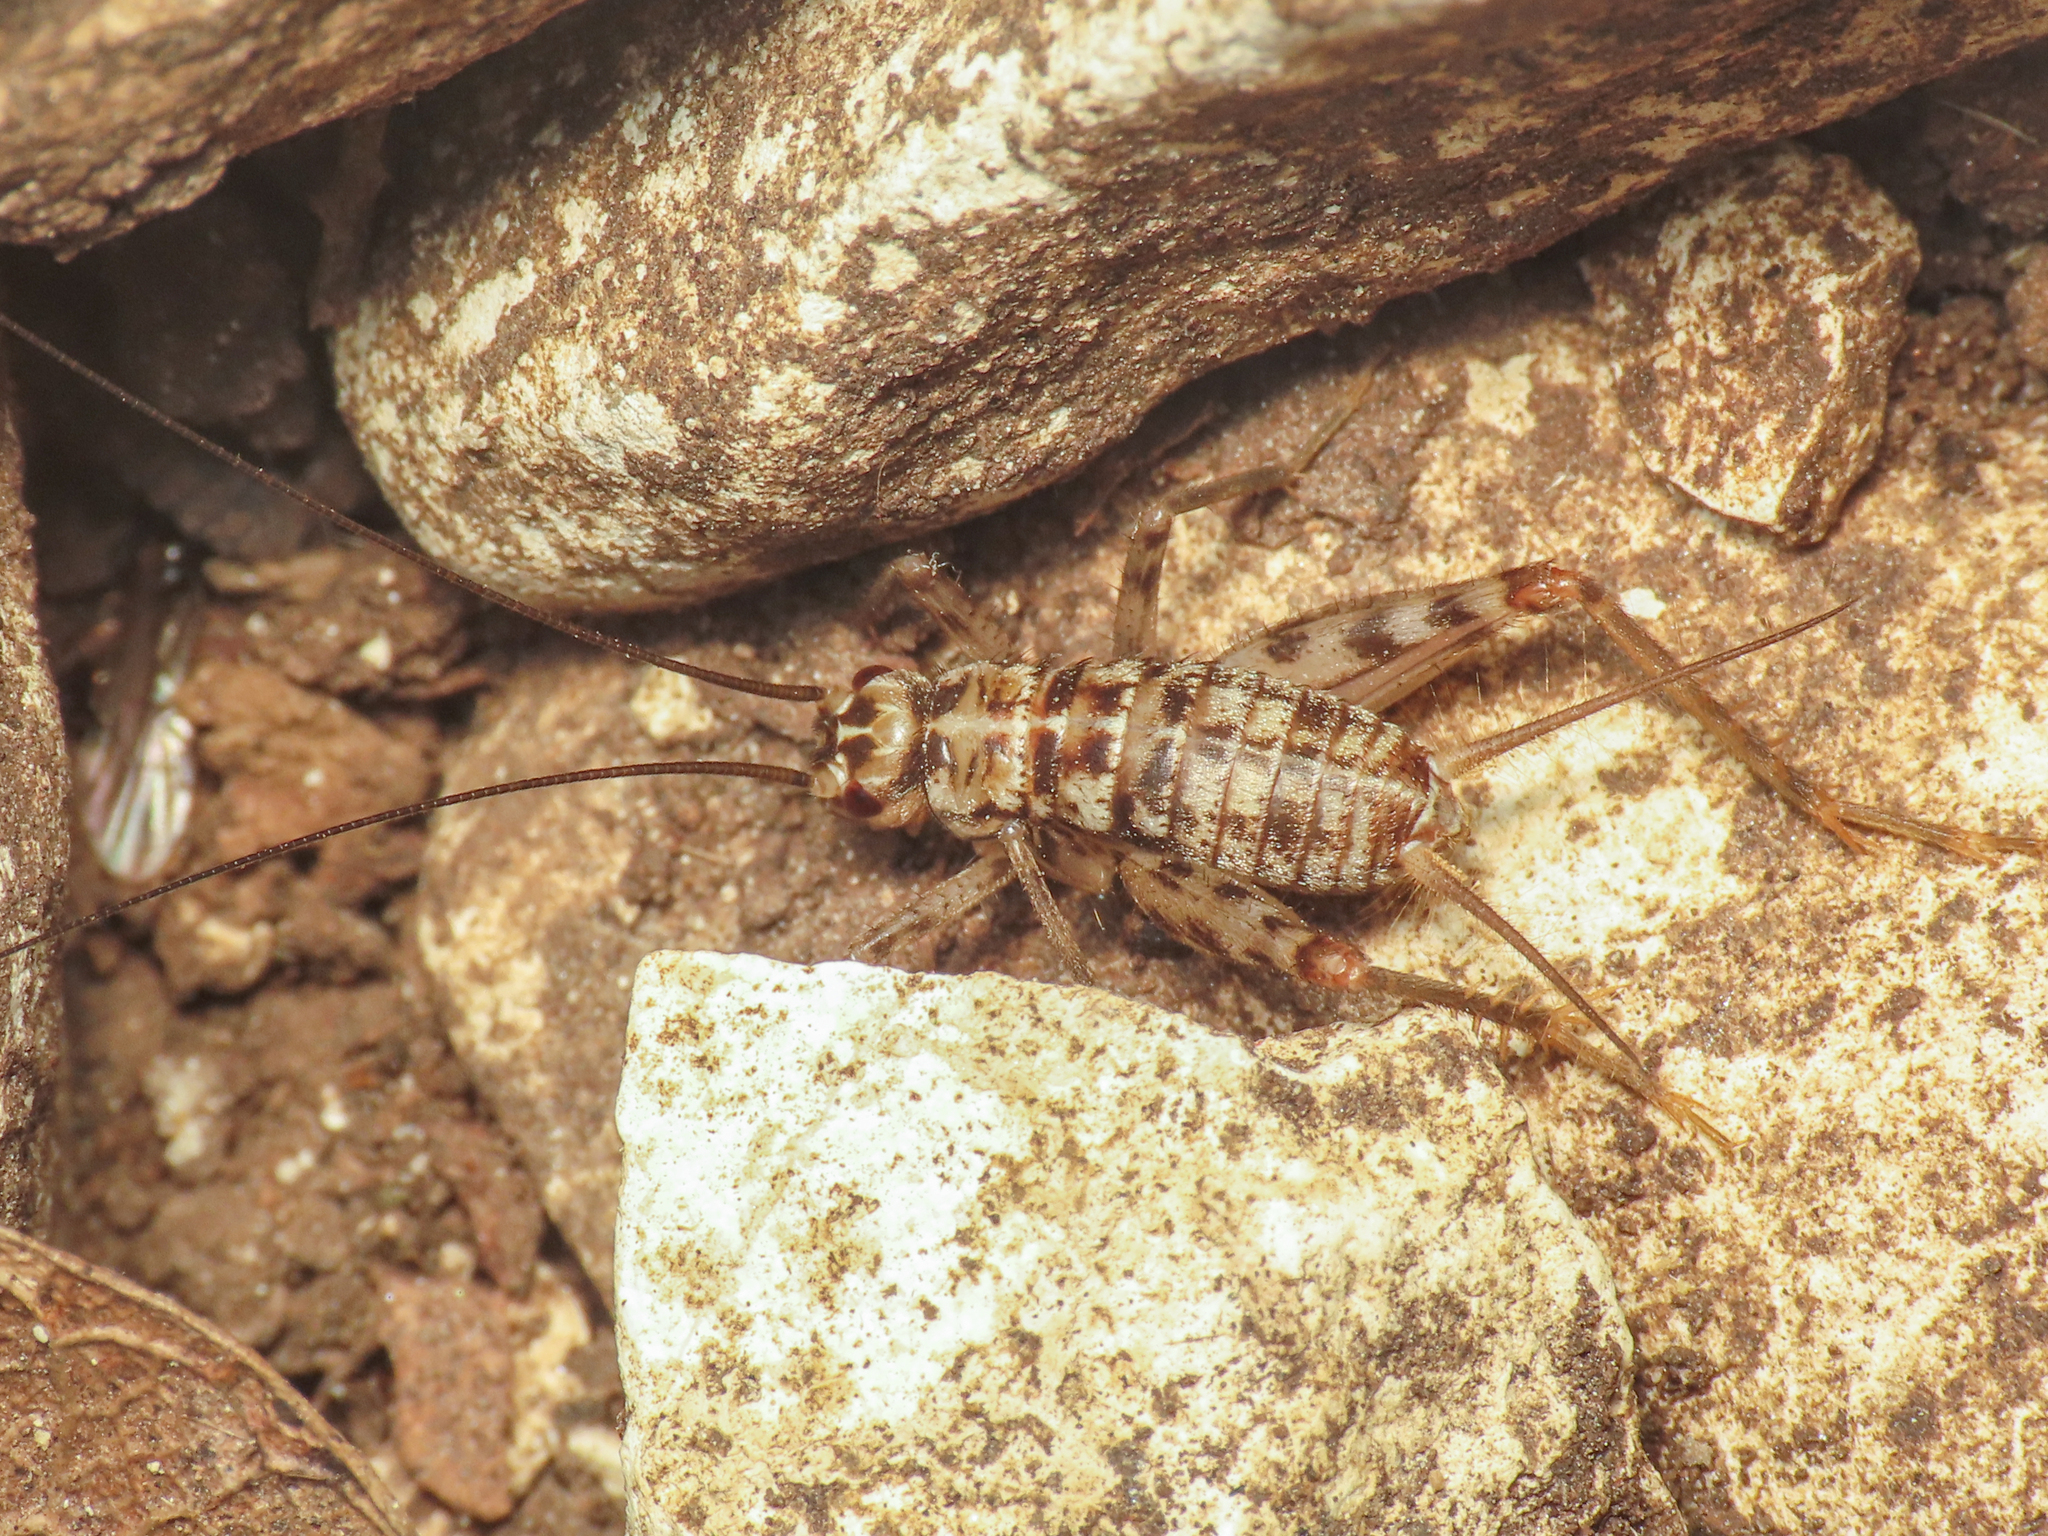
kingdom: Animalia
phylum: Arthropoda
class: Insecta
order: Orthoptera
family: Gryllidae
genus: Gryllomorpha
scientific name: Gryllomorpha dalmatina
